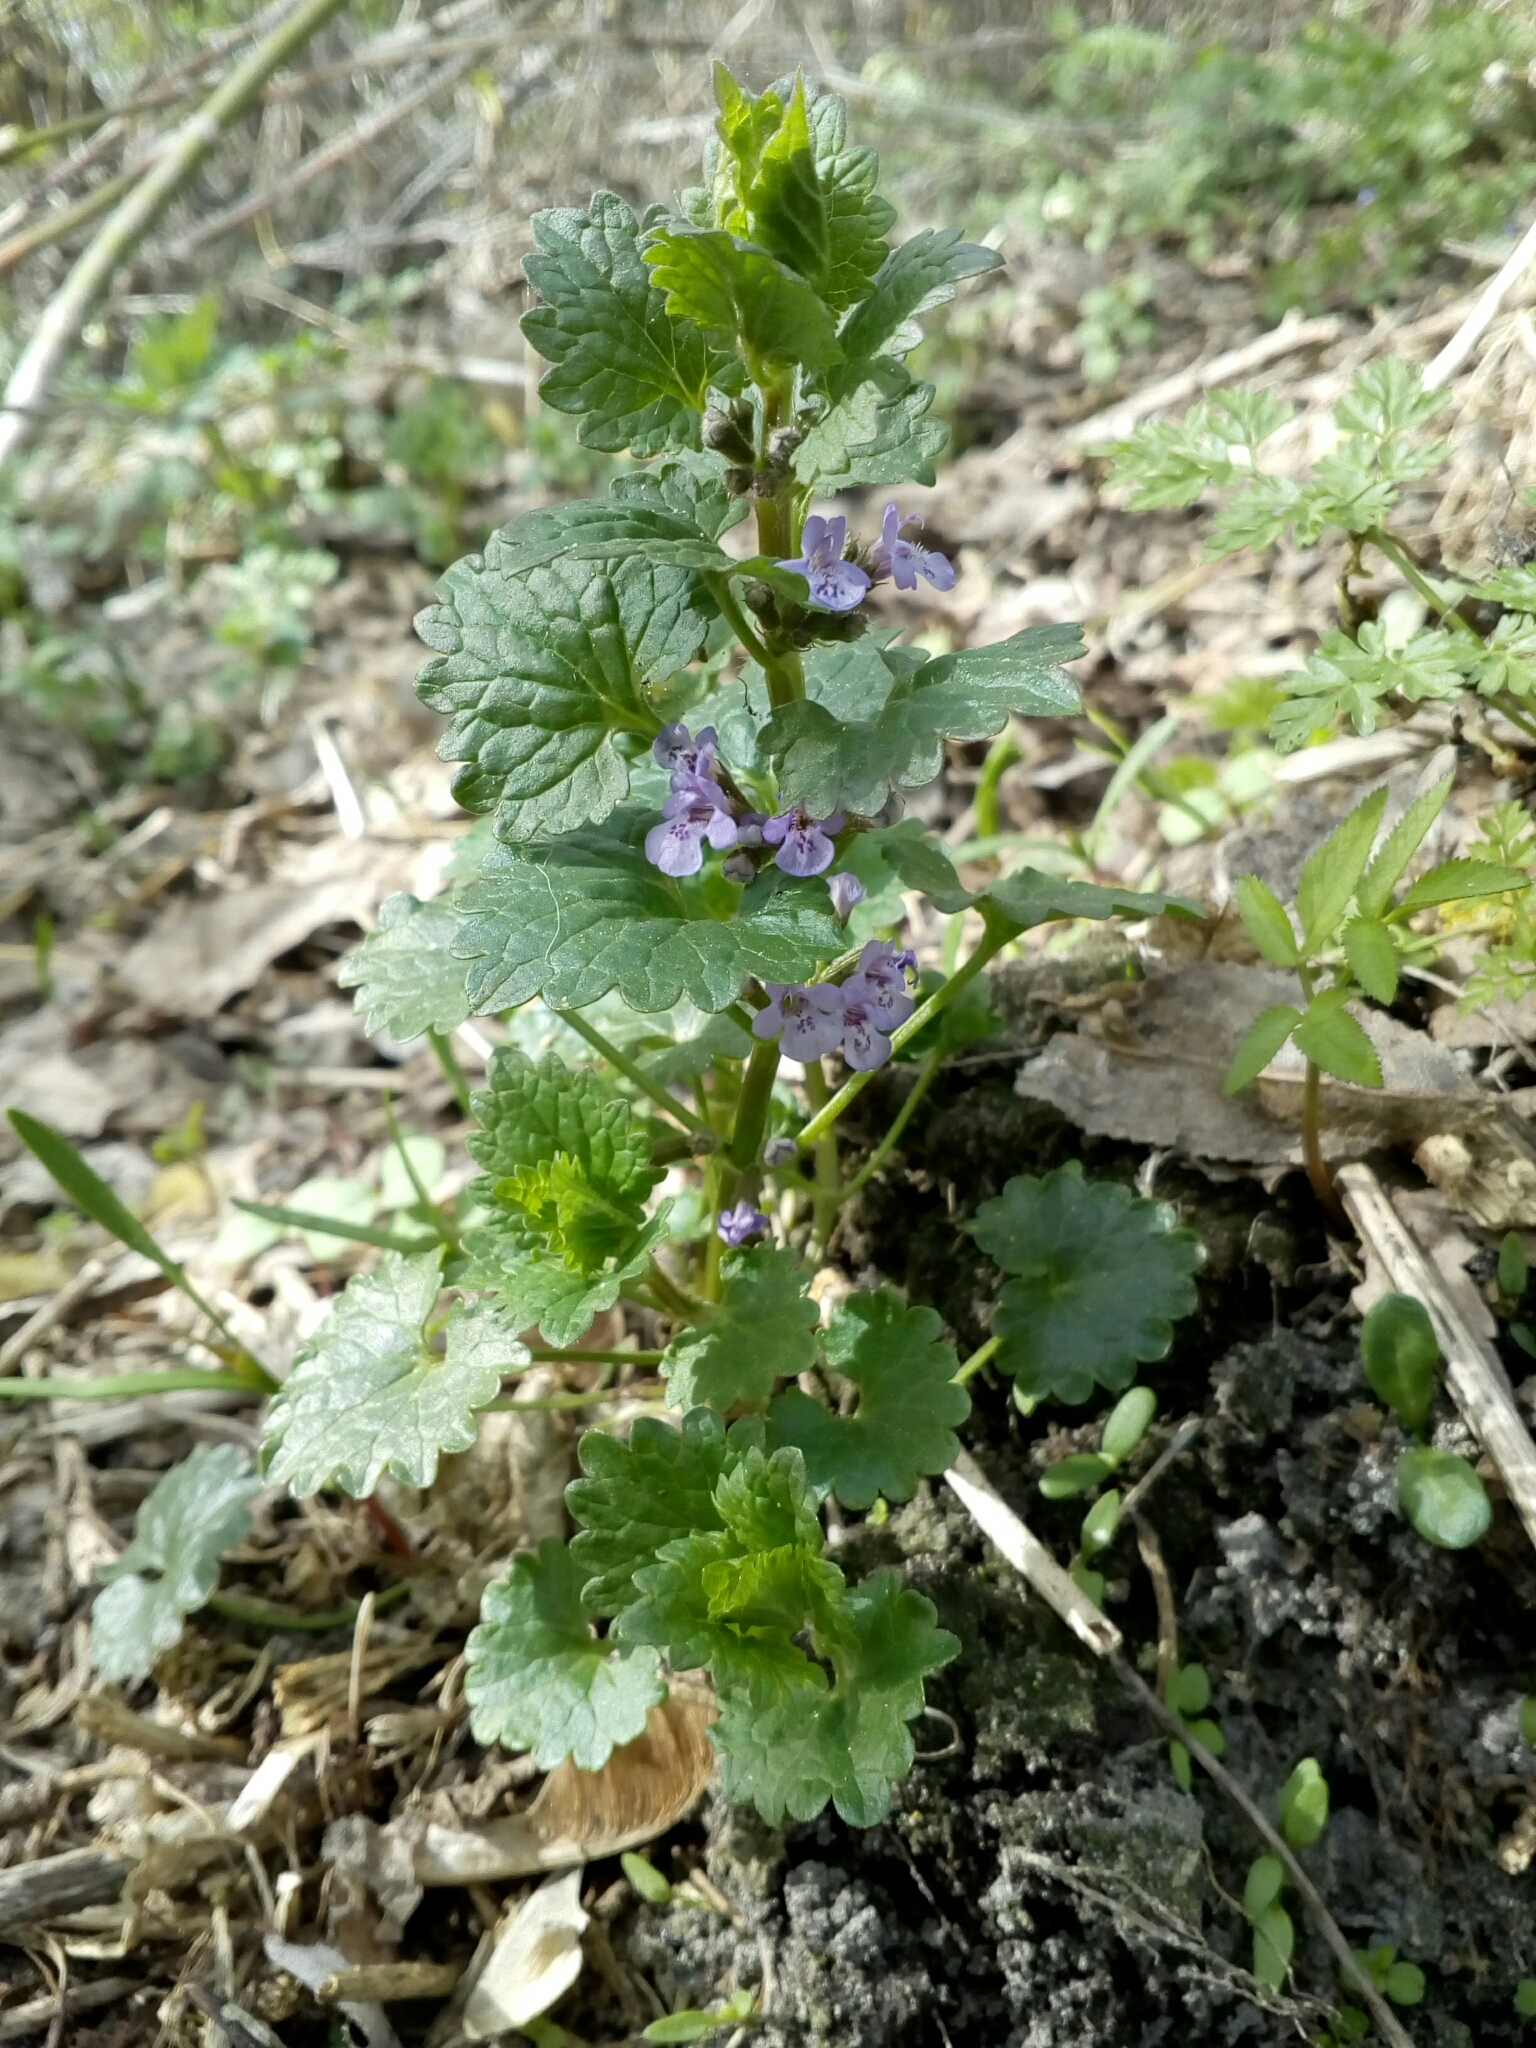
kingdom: Plantae
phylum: Tracheophyta
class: Magnoliopsida
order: Lamiales
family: Lamiaceae
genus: Glechoma
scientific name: Glechoma hederacea
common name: Ground ivy
